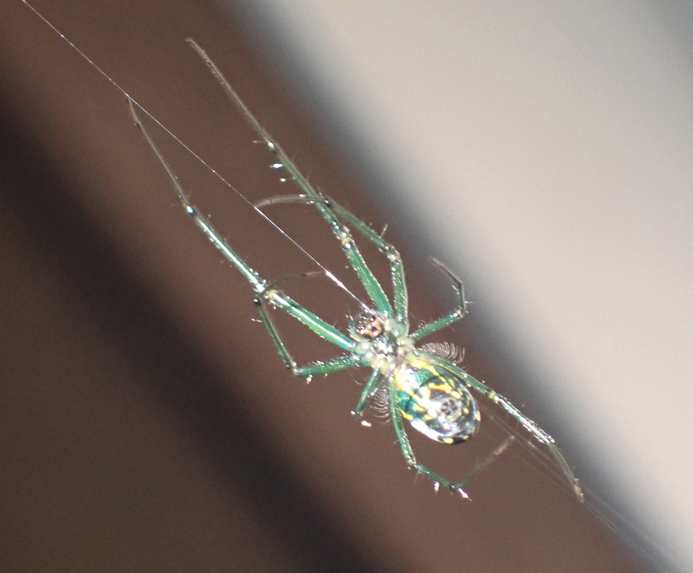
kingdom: Animalia
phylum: Arthropoda
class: Arachnida
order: Araneae
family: Tetragnathidae
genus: Leucauge
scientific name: Leucauge venusta
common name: Longjawed orb weavers
